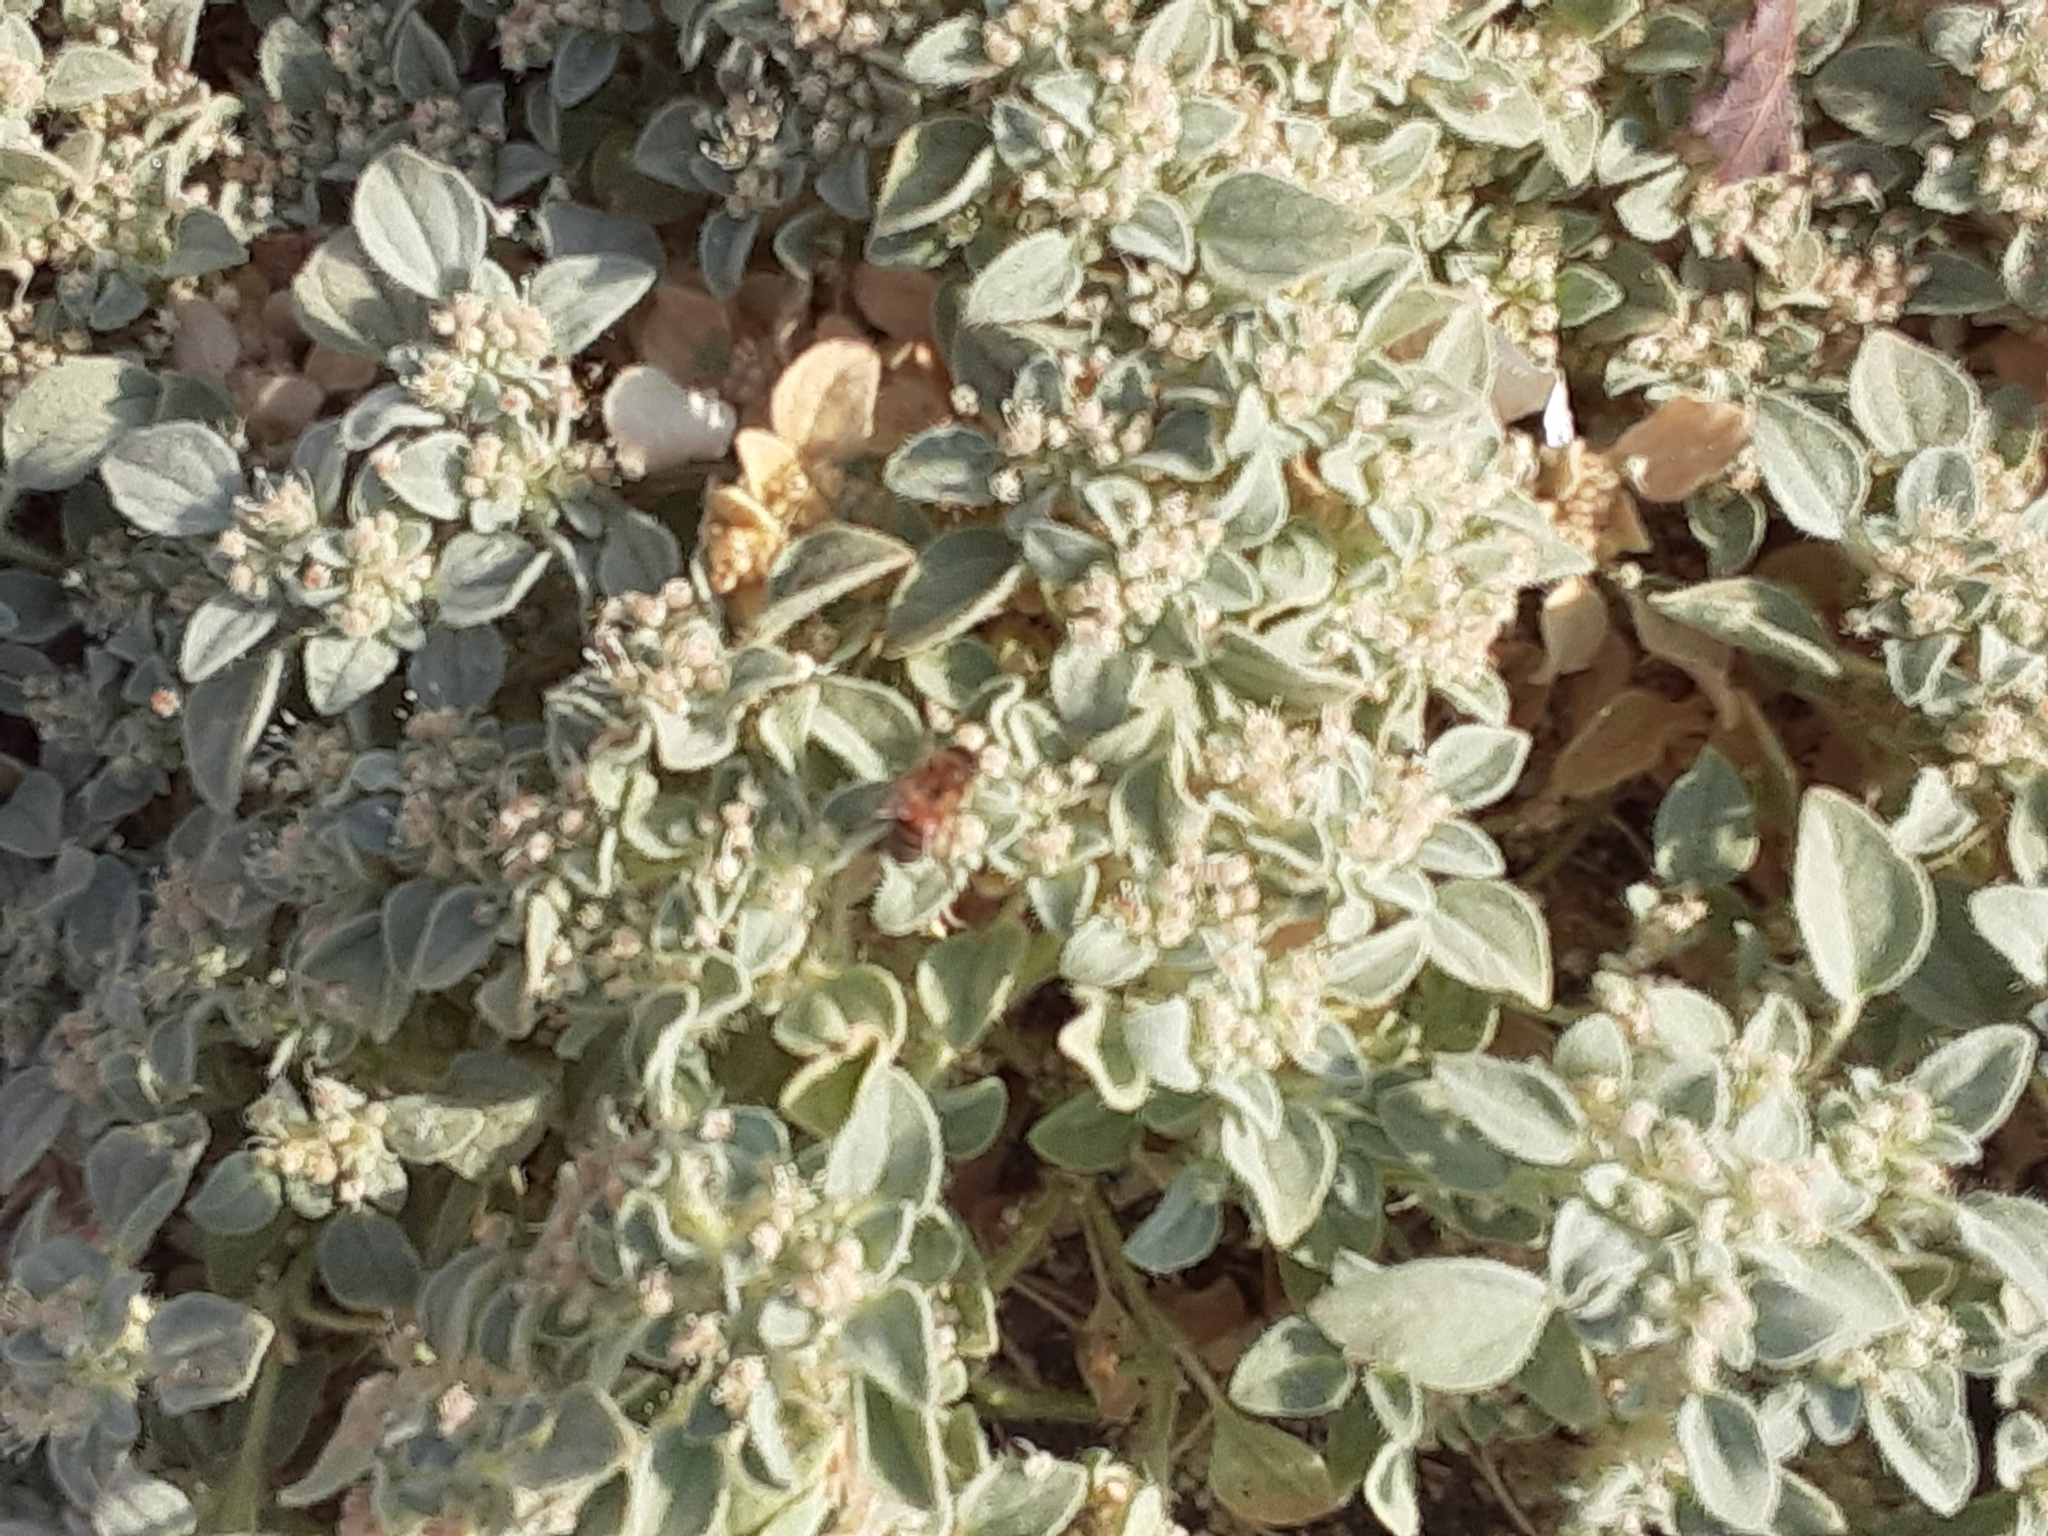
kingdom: Plantae
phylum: Tracheophyta
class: Magnoliopsida
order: Malpighiales
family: Euphorbiaceae
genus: Croton
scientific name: Croton setiger
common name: Dove weed
